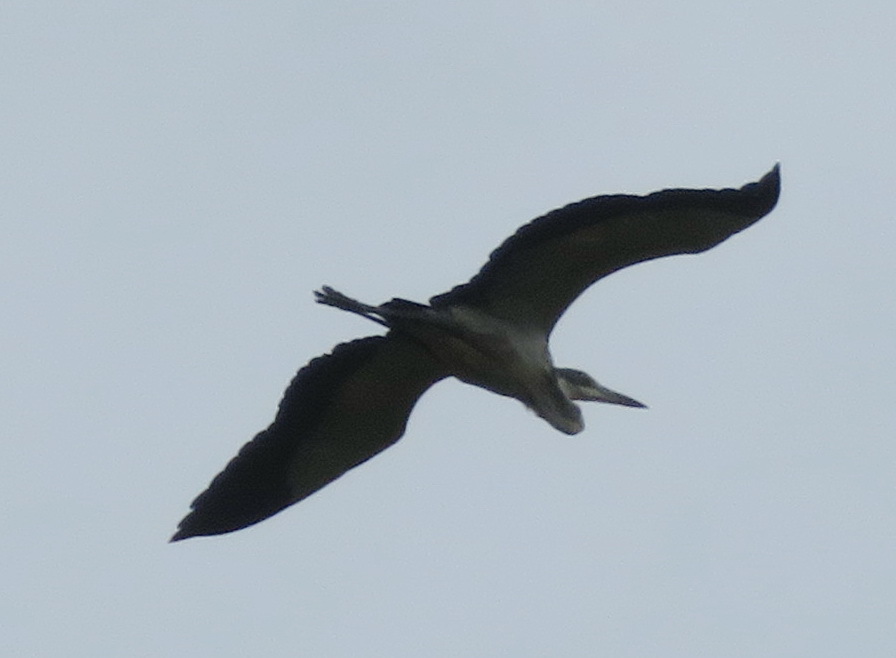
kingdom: Animalia
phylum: Chordata
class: Aves
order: Pelecaniformes
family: Ardeidae
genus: Ardea
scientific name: Ardea melanocephala
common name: Black-headed heron
